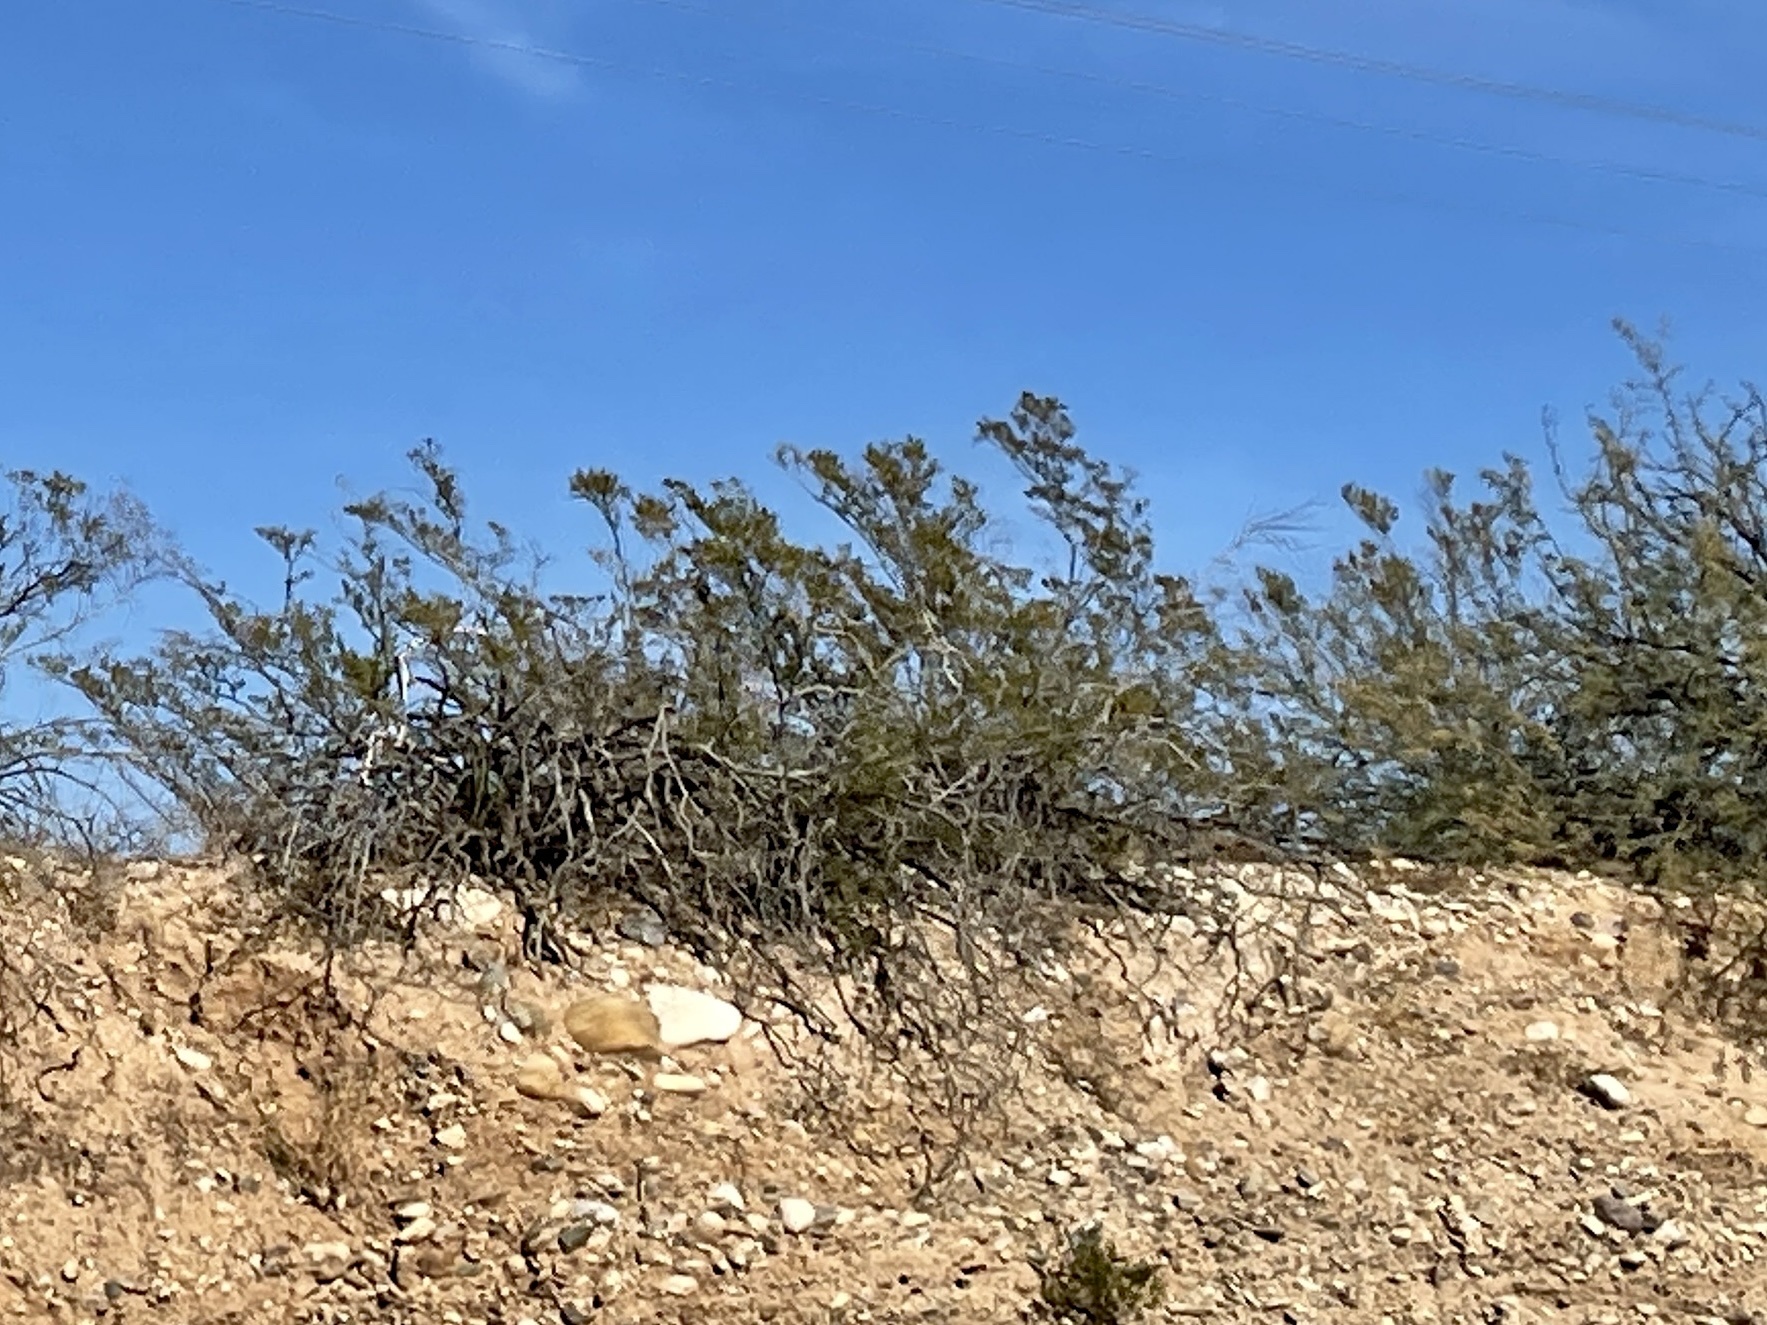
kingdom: Plantae
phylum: Tracheophyta
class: Magnoliopsida
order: Zygophyllales
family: Zygophyllaceae
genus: Larrea
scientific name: Larrea tridentata
